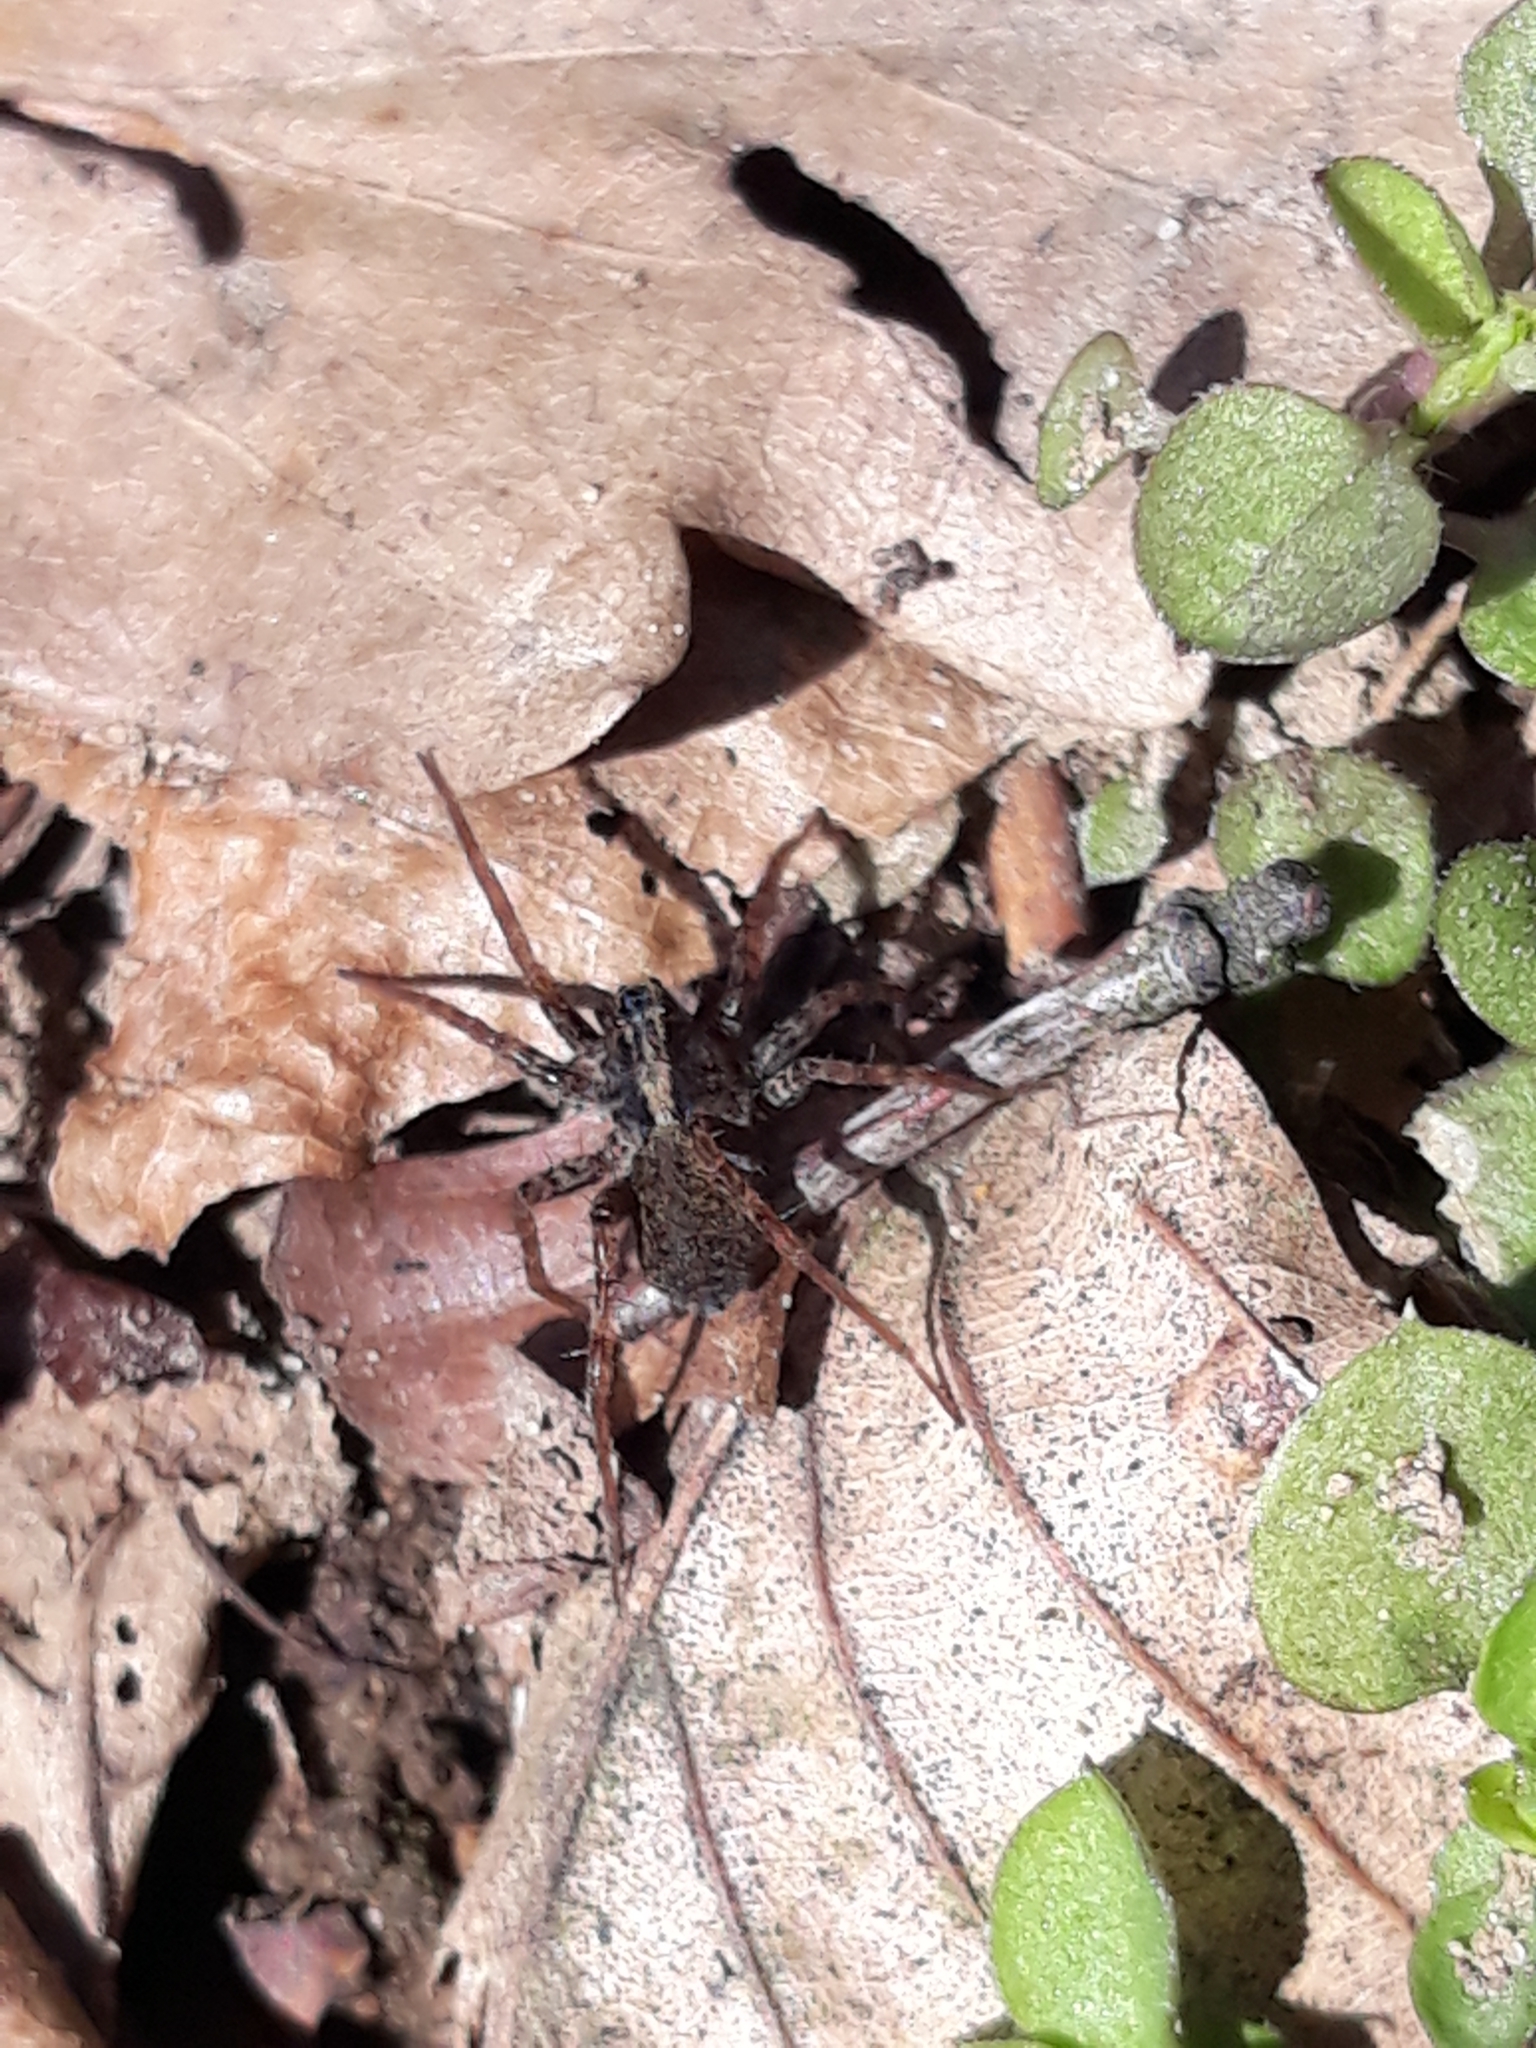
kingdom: Animalia
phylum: Arthropoda
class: Arachnida
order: Araneae
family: Lycosidae
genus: Pardosa
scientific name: Pardosa
